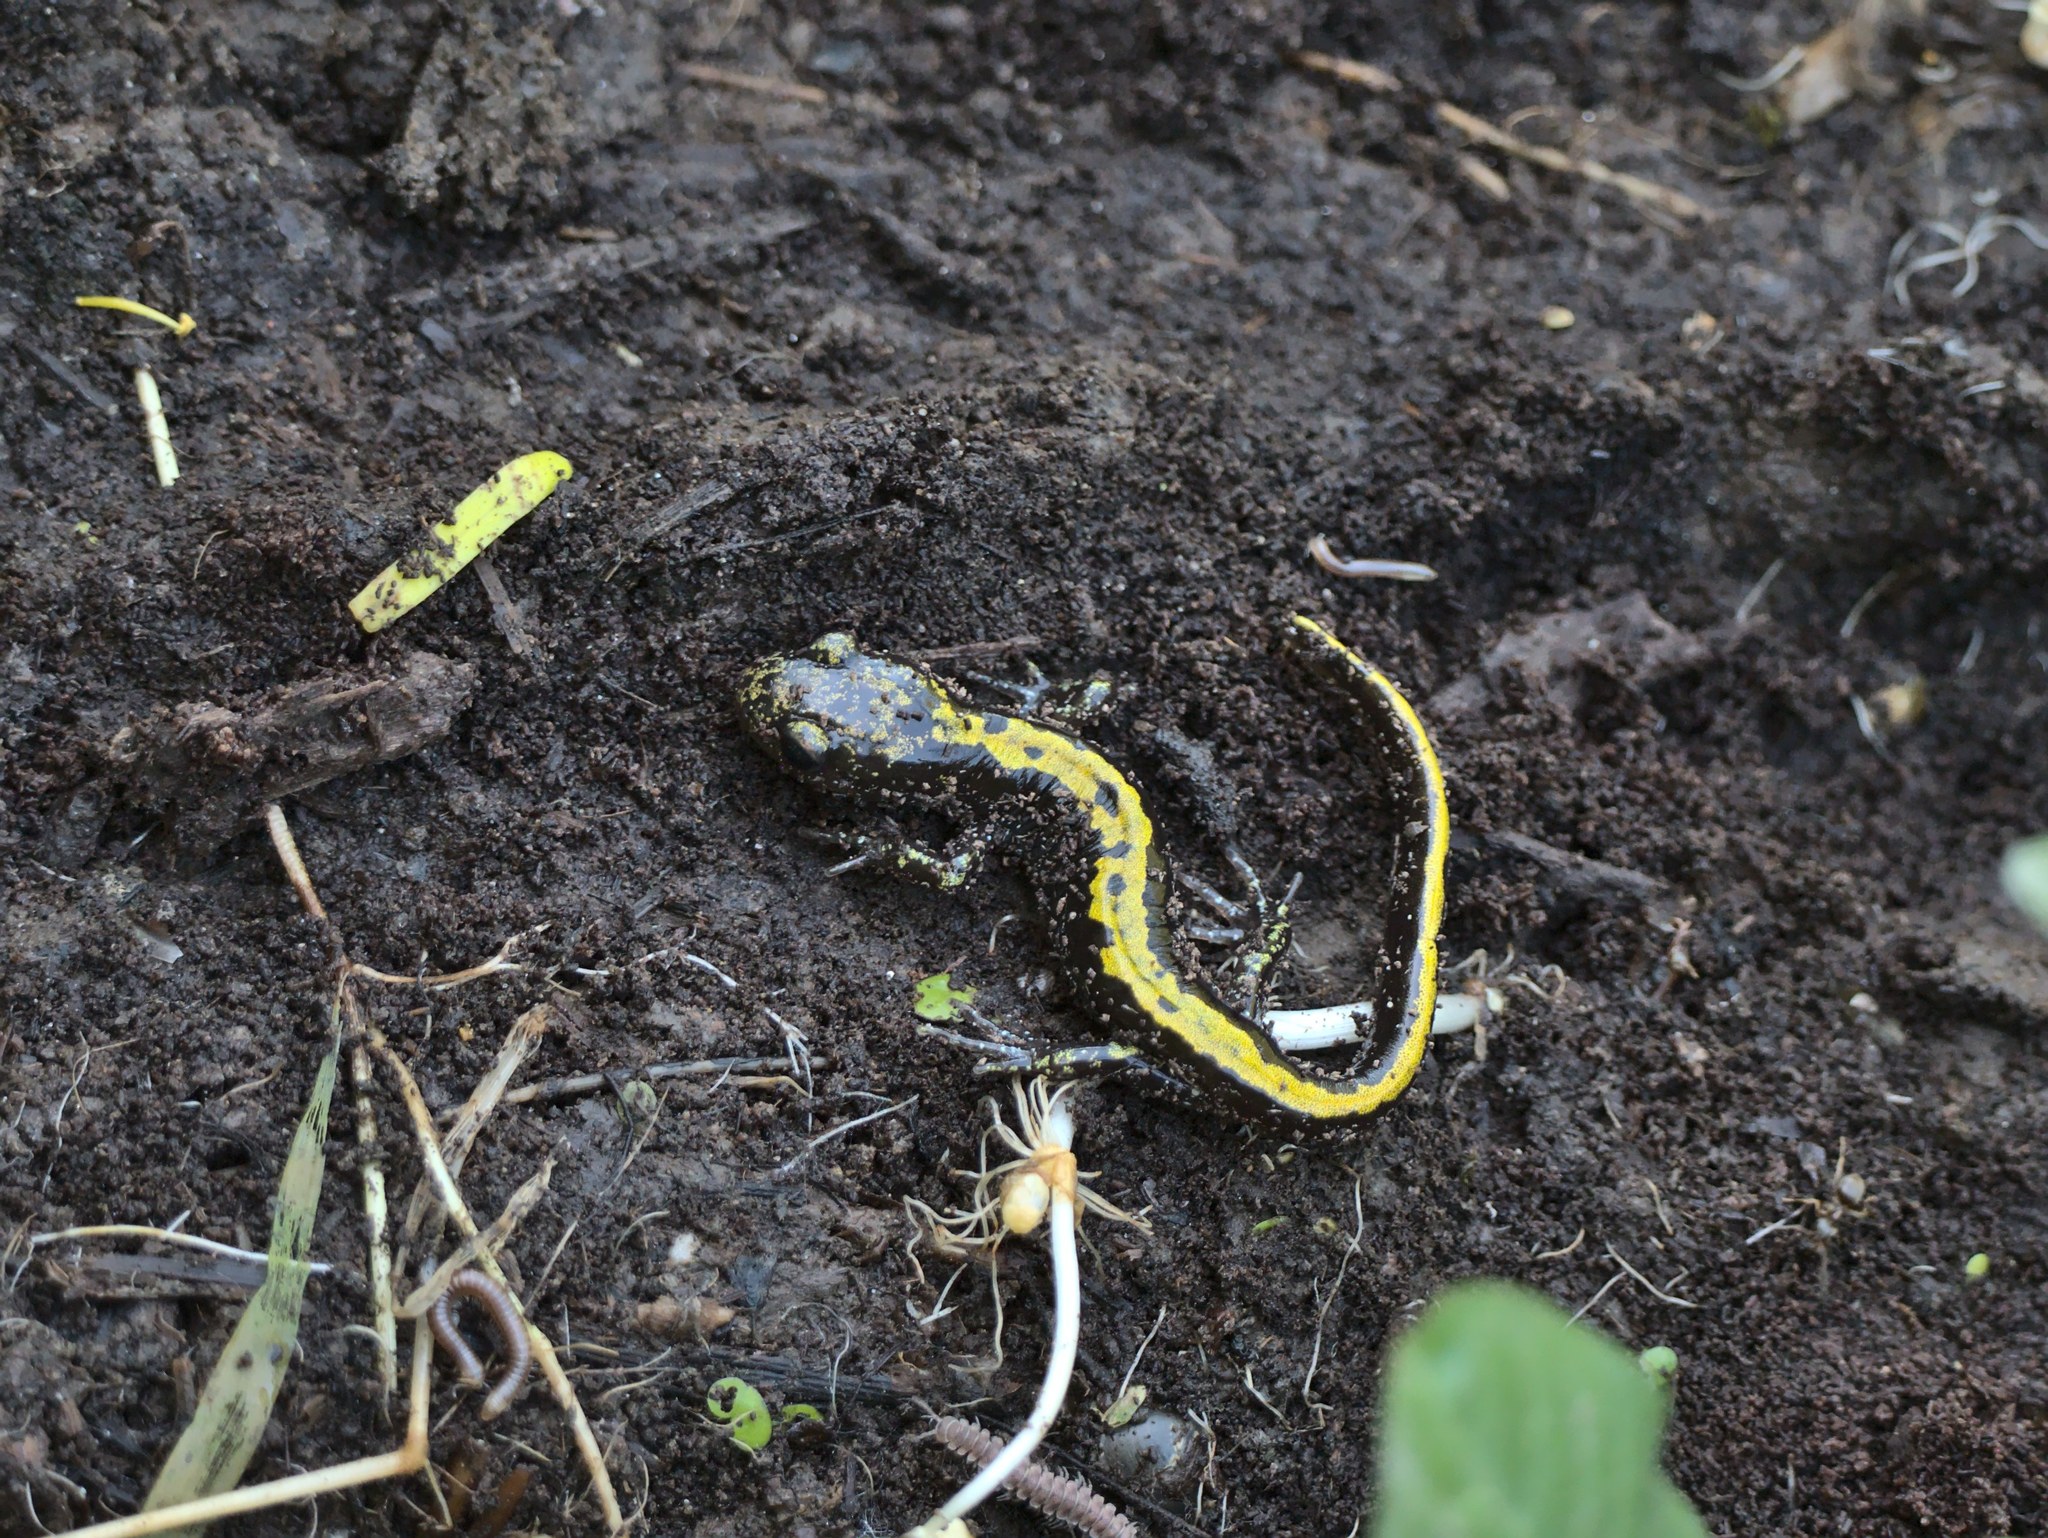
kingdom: Animalia
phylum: Chordata
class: Amphibia
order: Caudata
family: Ambystomatidae
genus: Ambystoma
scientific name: Ambystoma macrodactylum
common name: Long-toed salamander
